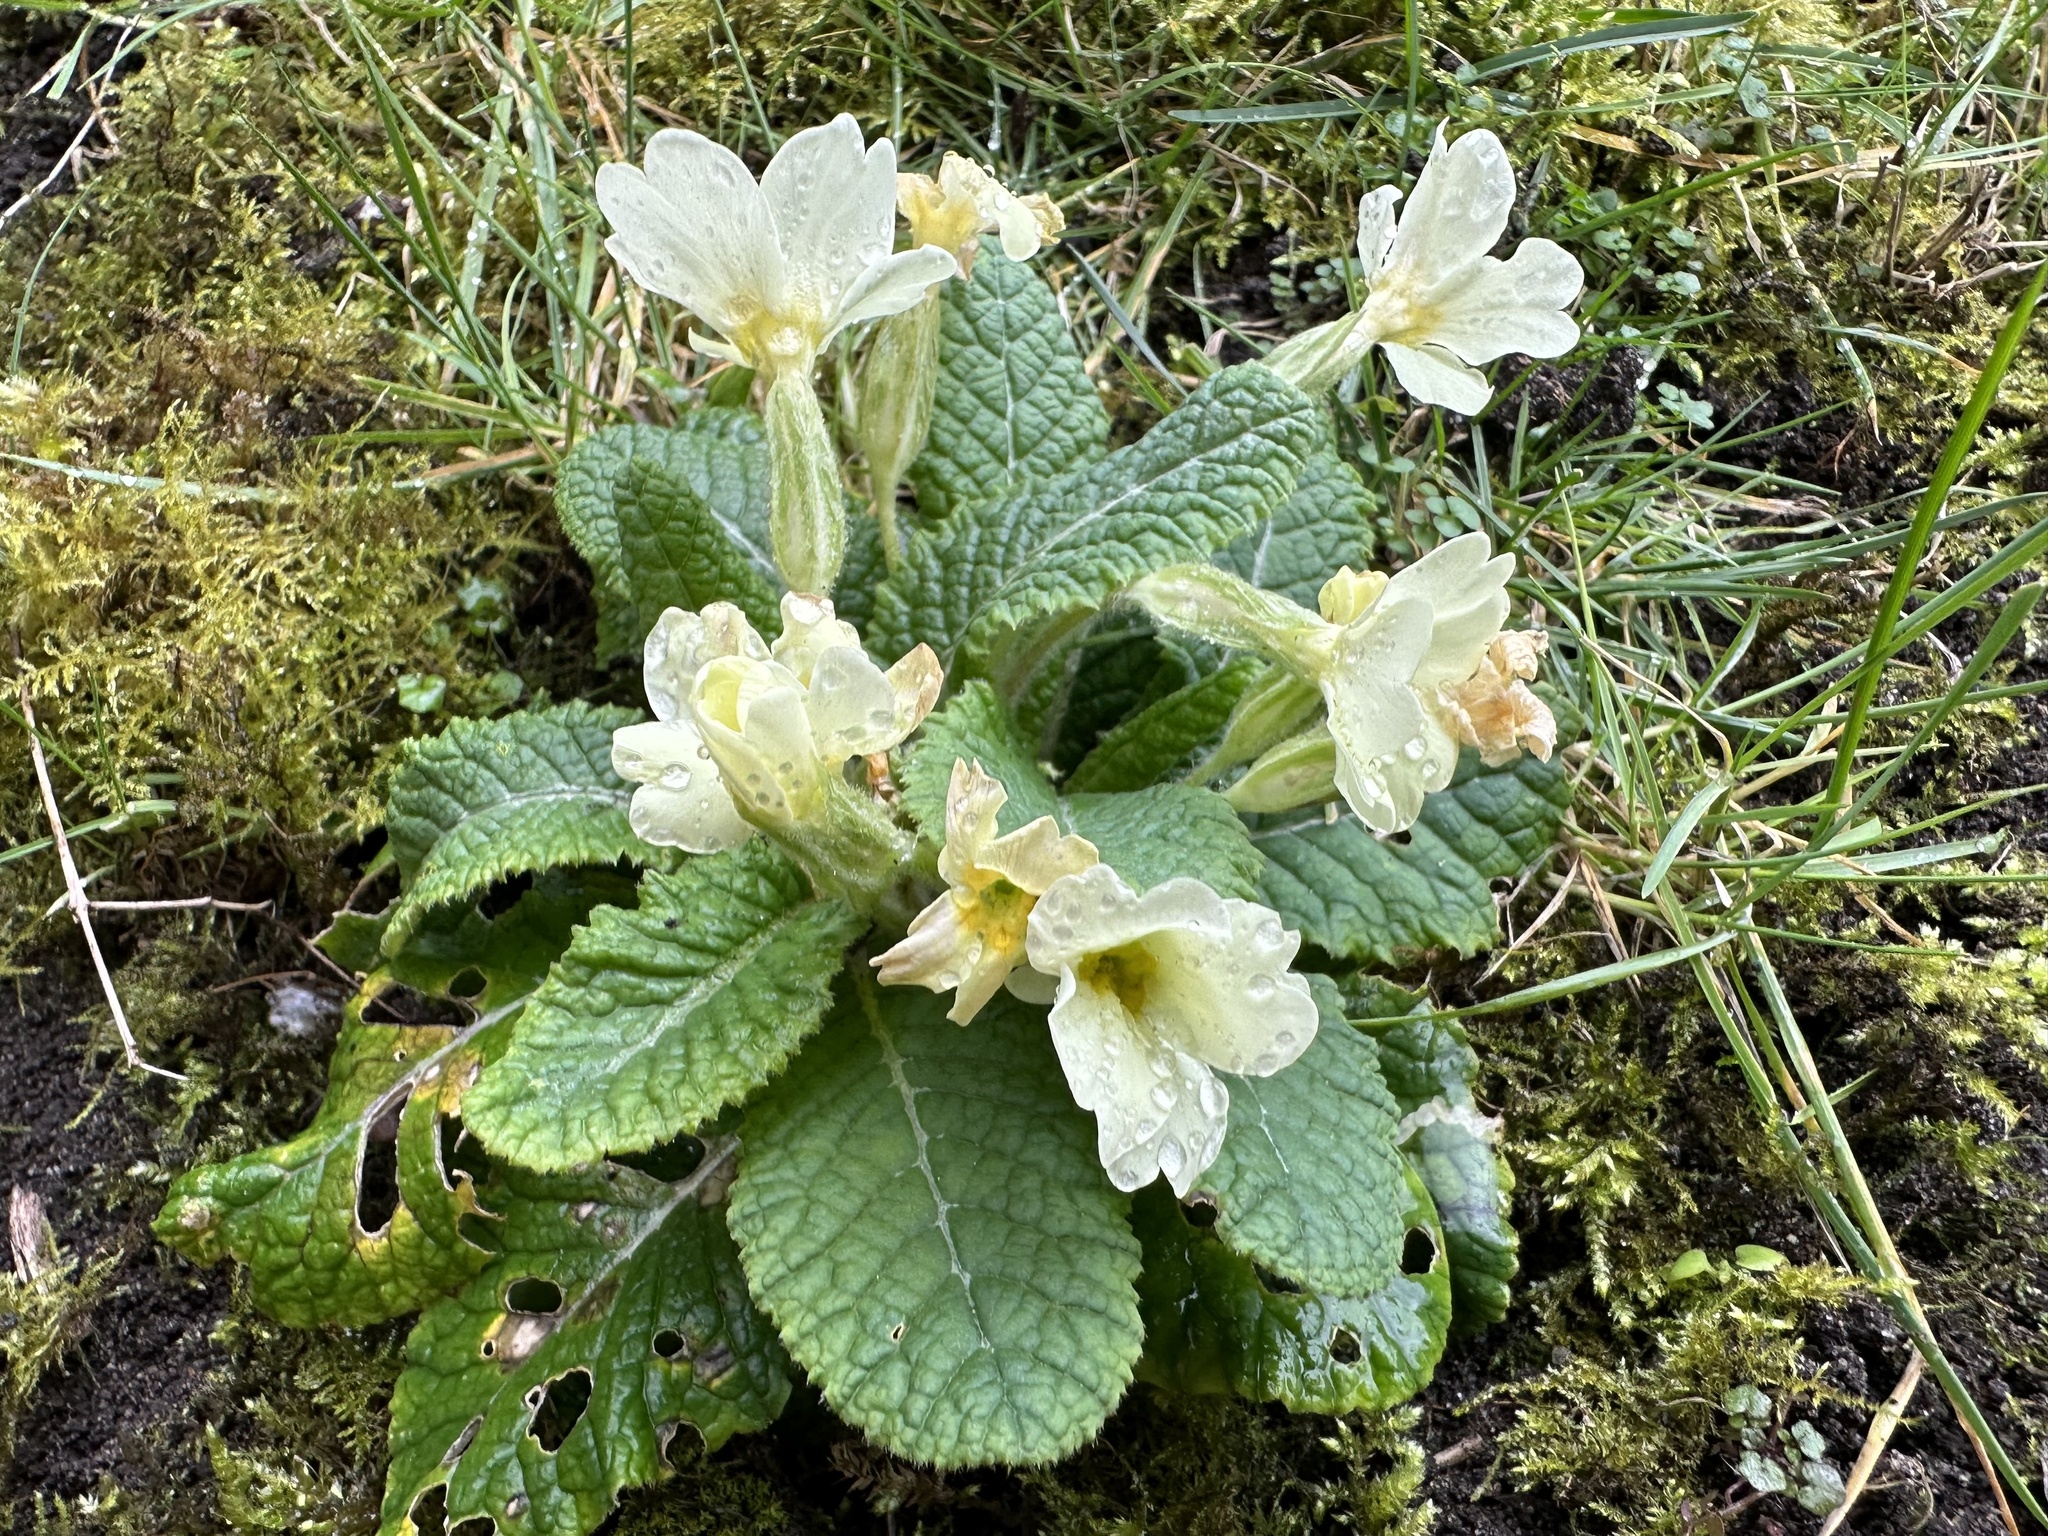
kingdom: Plantae
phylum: Tracheophyta
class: Magnoliopsida
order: Ericales
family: Primulaceae
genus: Primula
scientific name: Primula vulgaris
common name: Primrose
